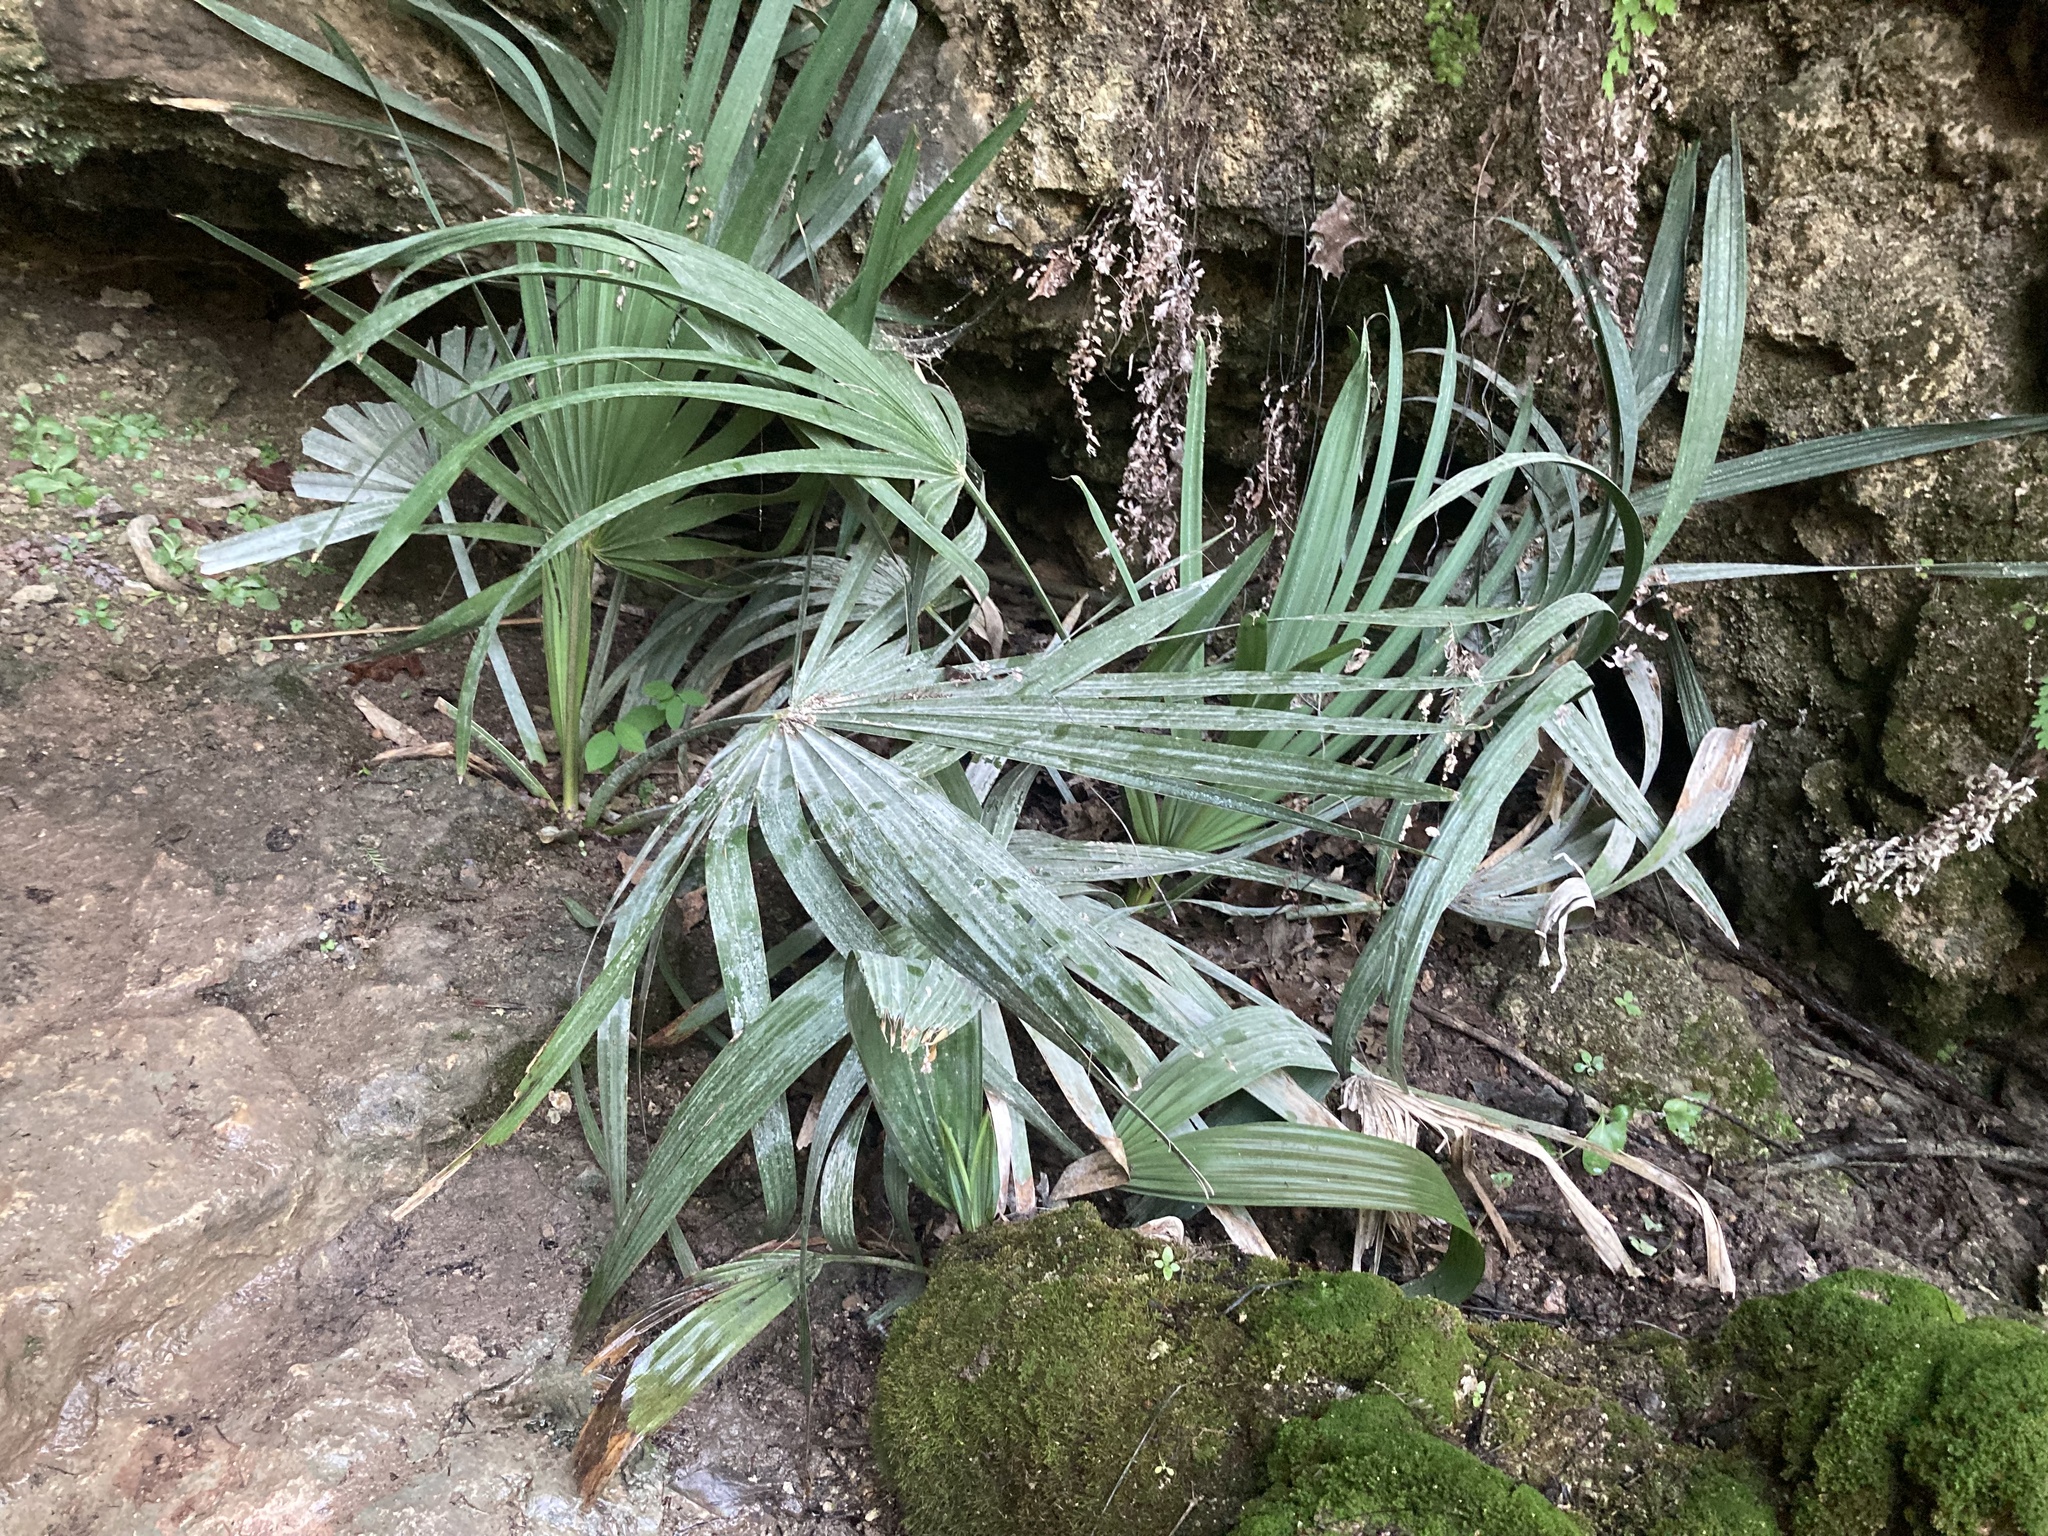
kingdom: Plantae
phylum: Tracheophyta
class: Liliopsida
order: Arecales
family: Arecaceae
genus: Sabal
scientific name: Sabal minor
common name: Dwarf palmetto
